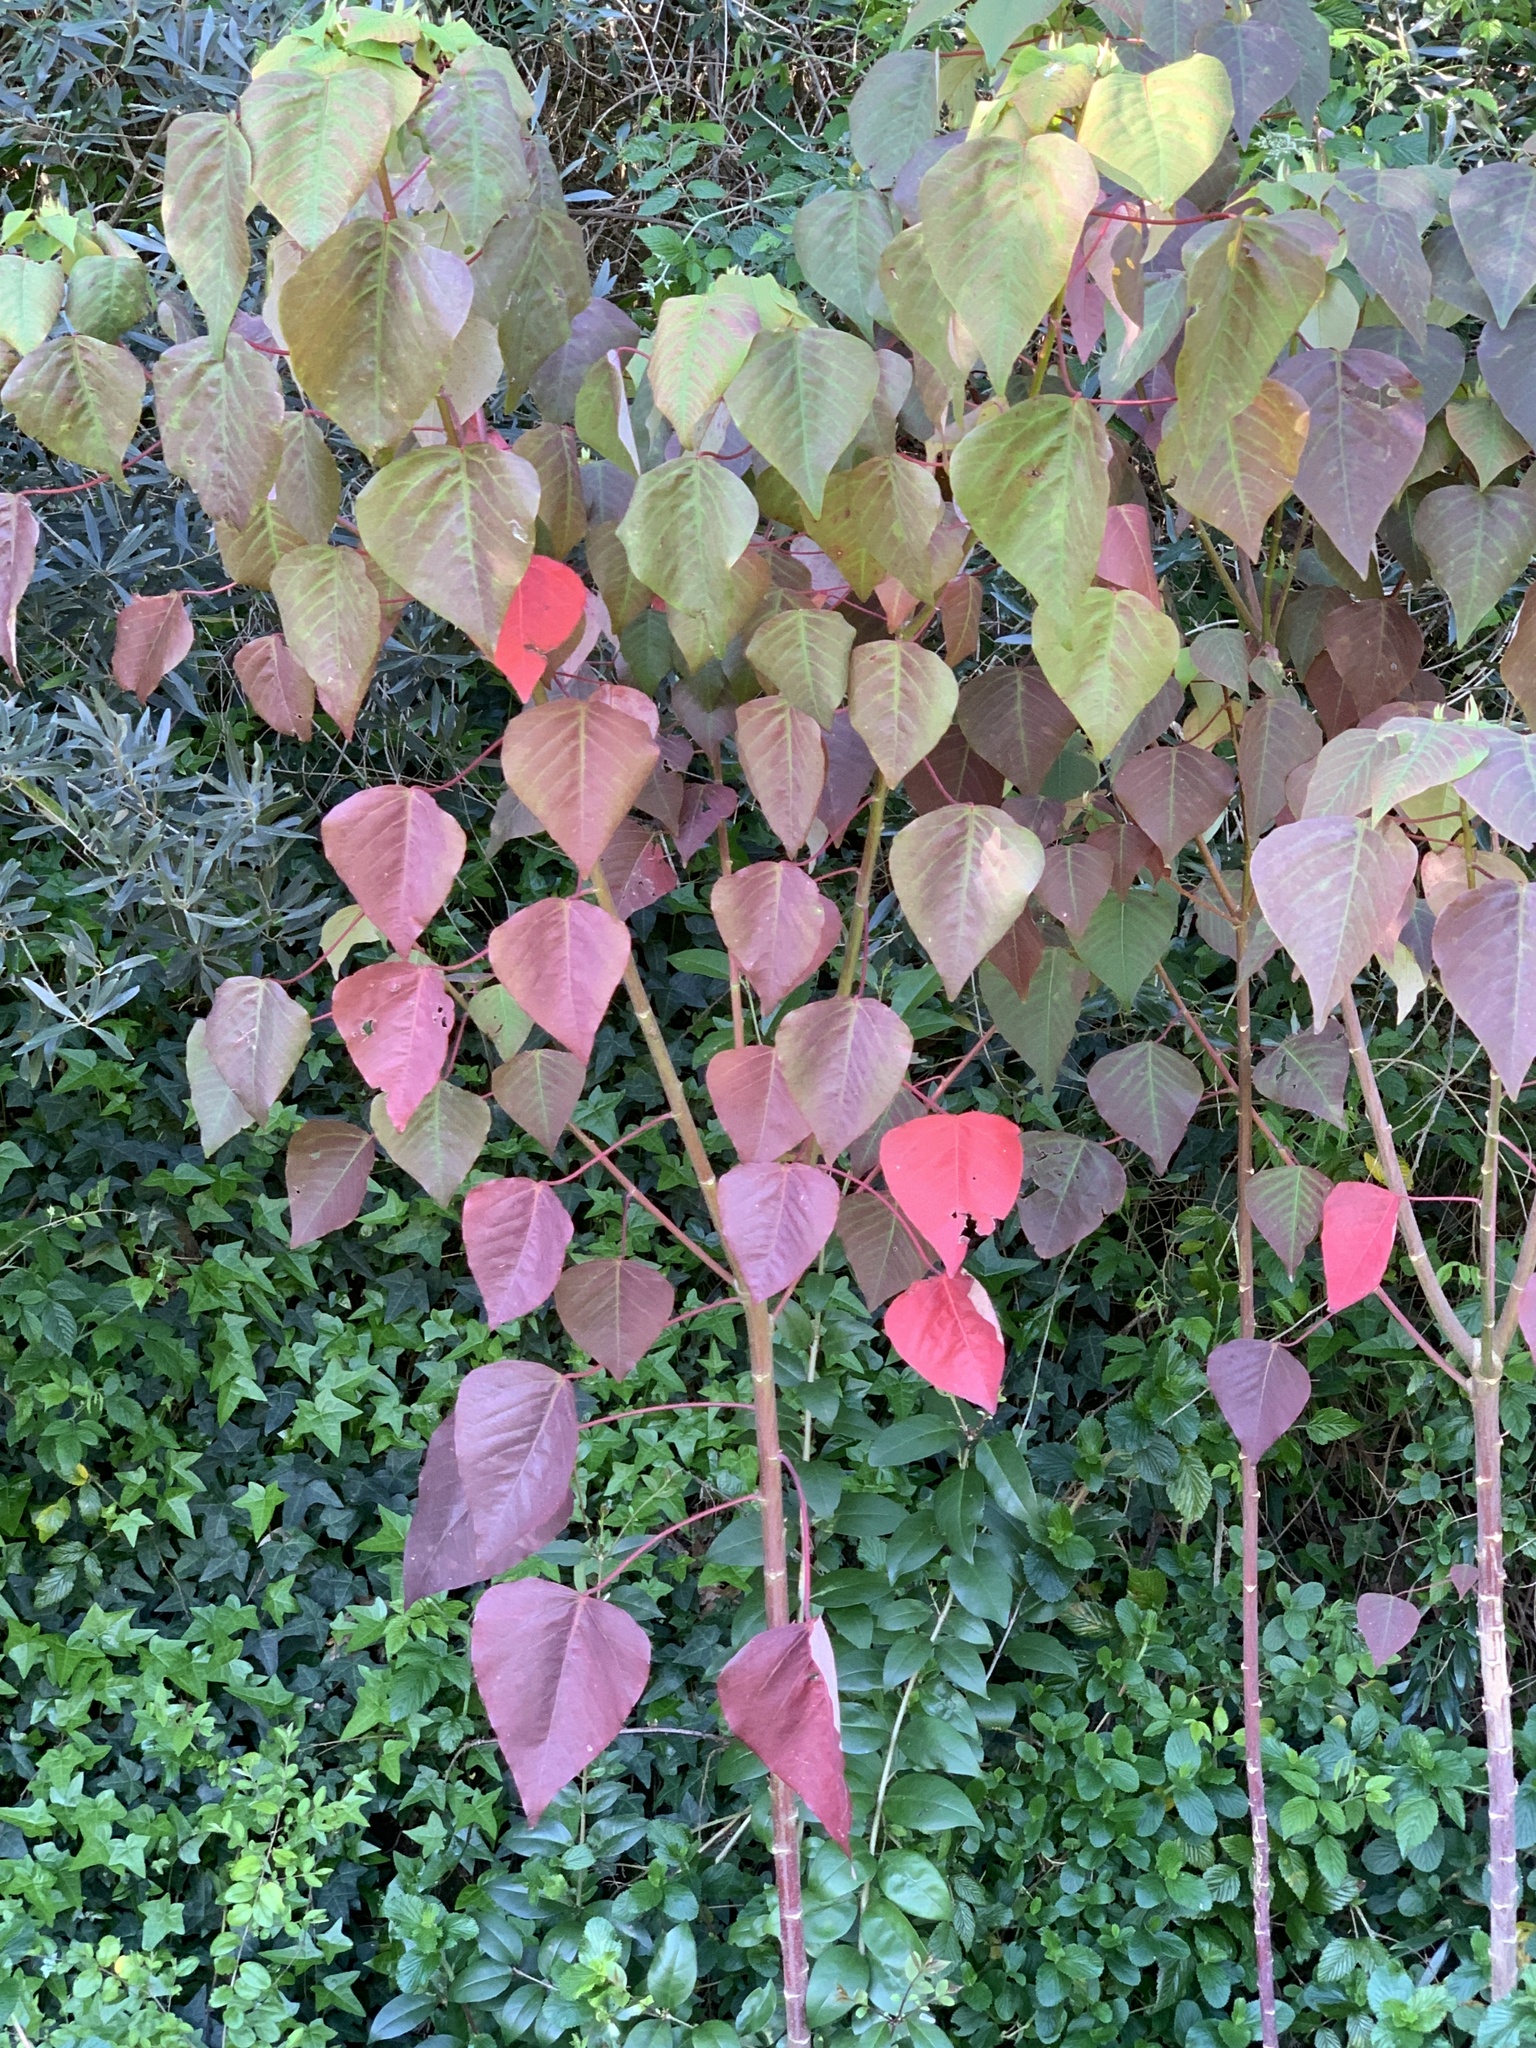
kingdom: Plantae
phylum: Tracheophyta
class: Magnoliopsida
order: Malpighiales
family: Euphorbiaceae
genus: Homalanthus
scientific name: Homalanthus populifolius
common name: Queensland poplar
